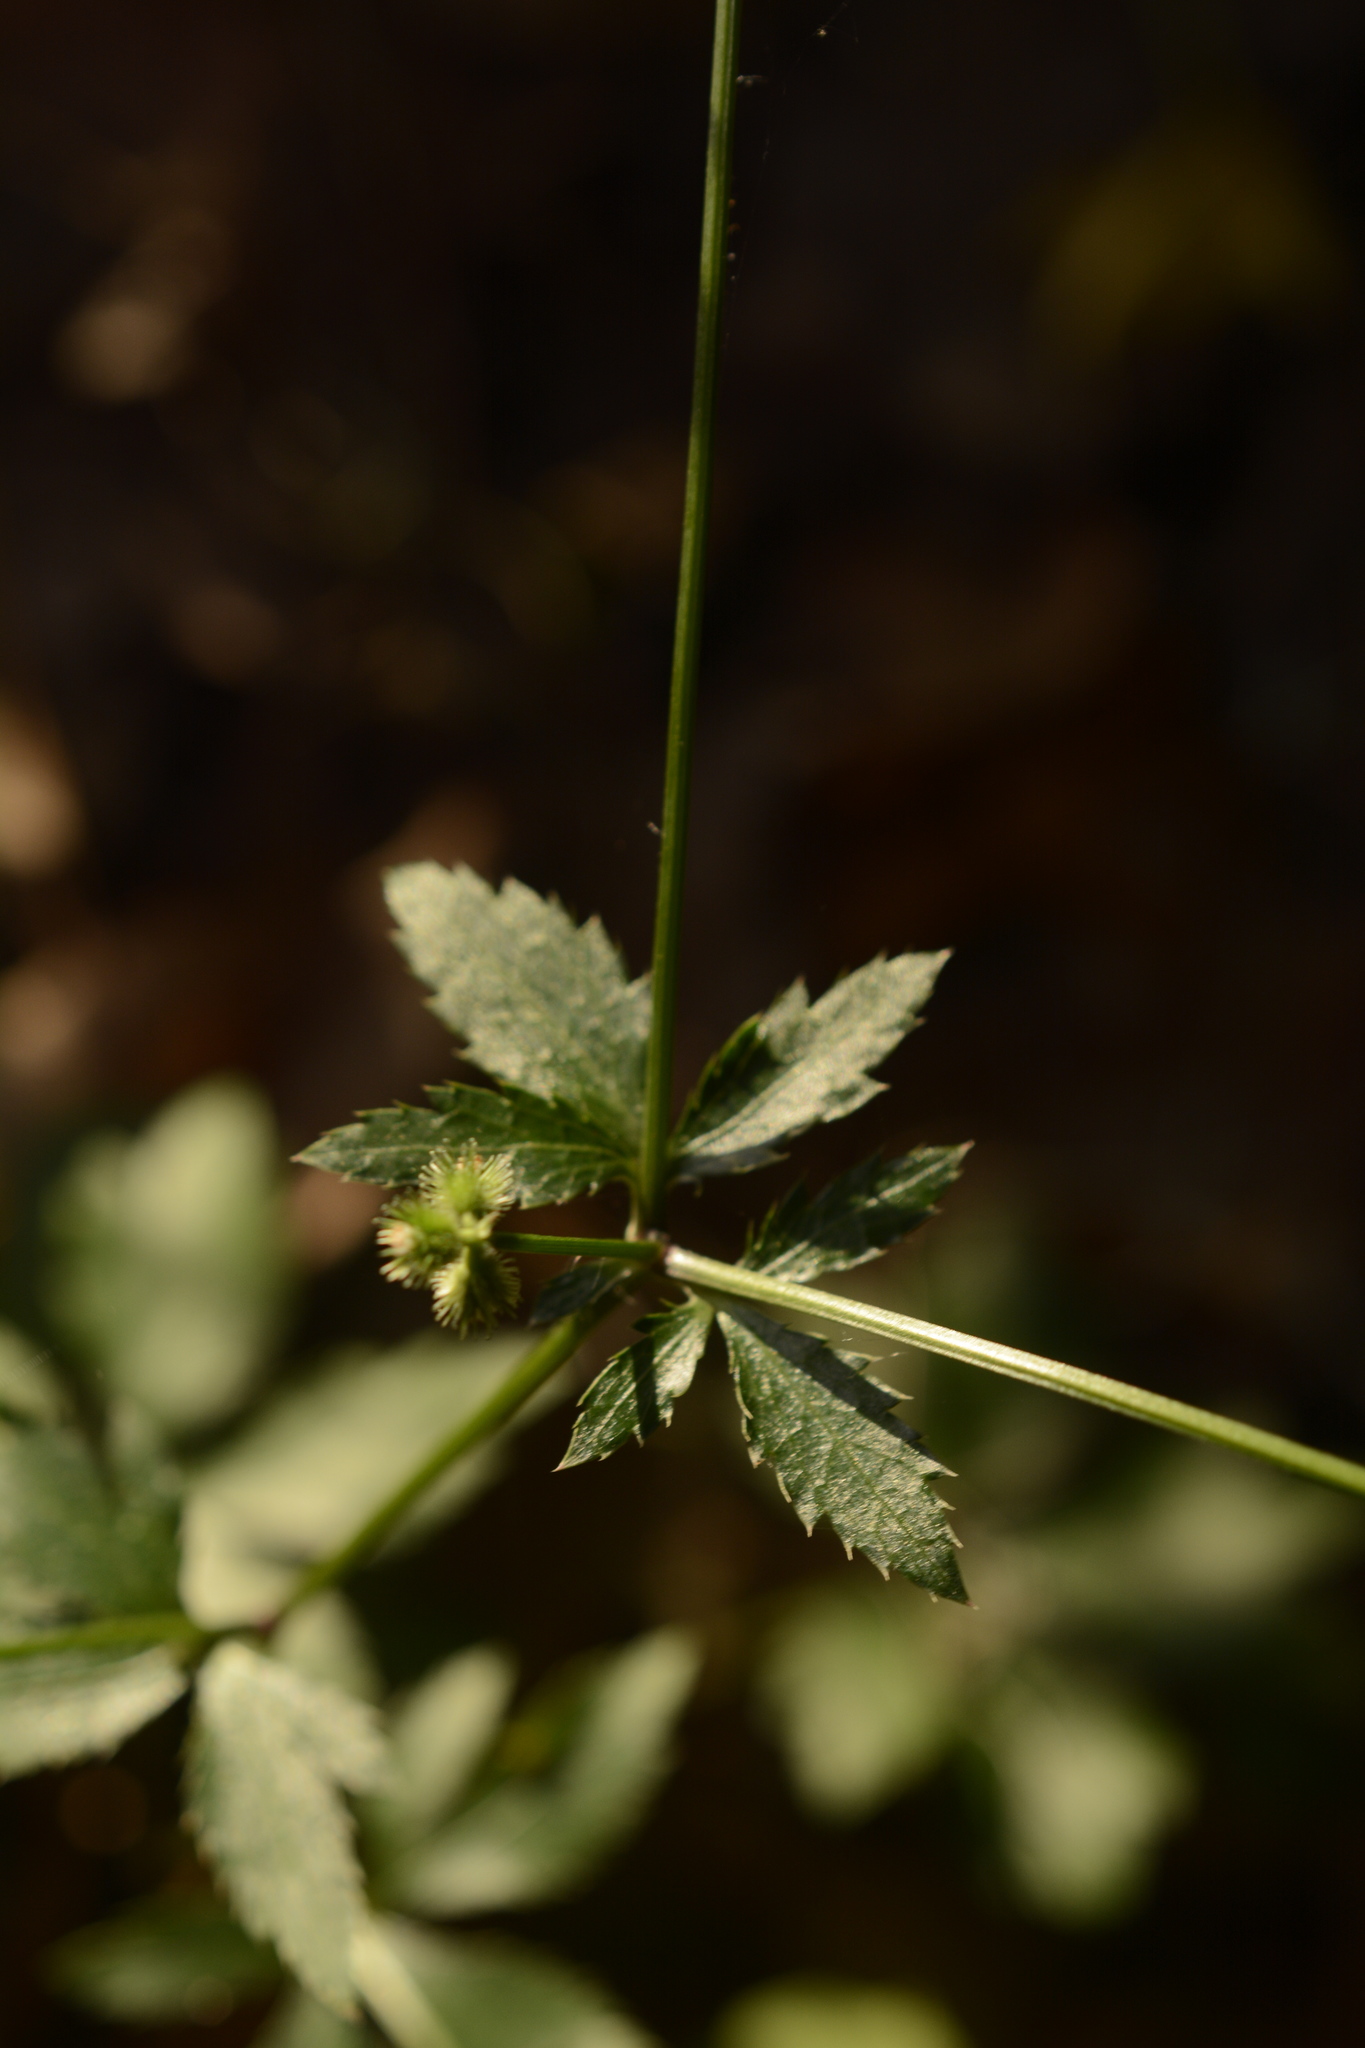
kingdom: Plantae
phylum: Tracheophyta
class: Magnoliopsida
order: Apiales
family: Apiaceae
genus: Sanicula
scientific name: Sanicula canadensis
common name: Canada sanicle
